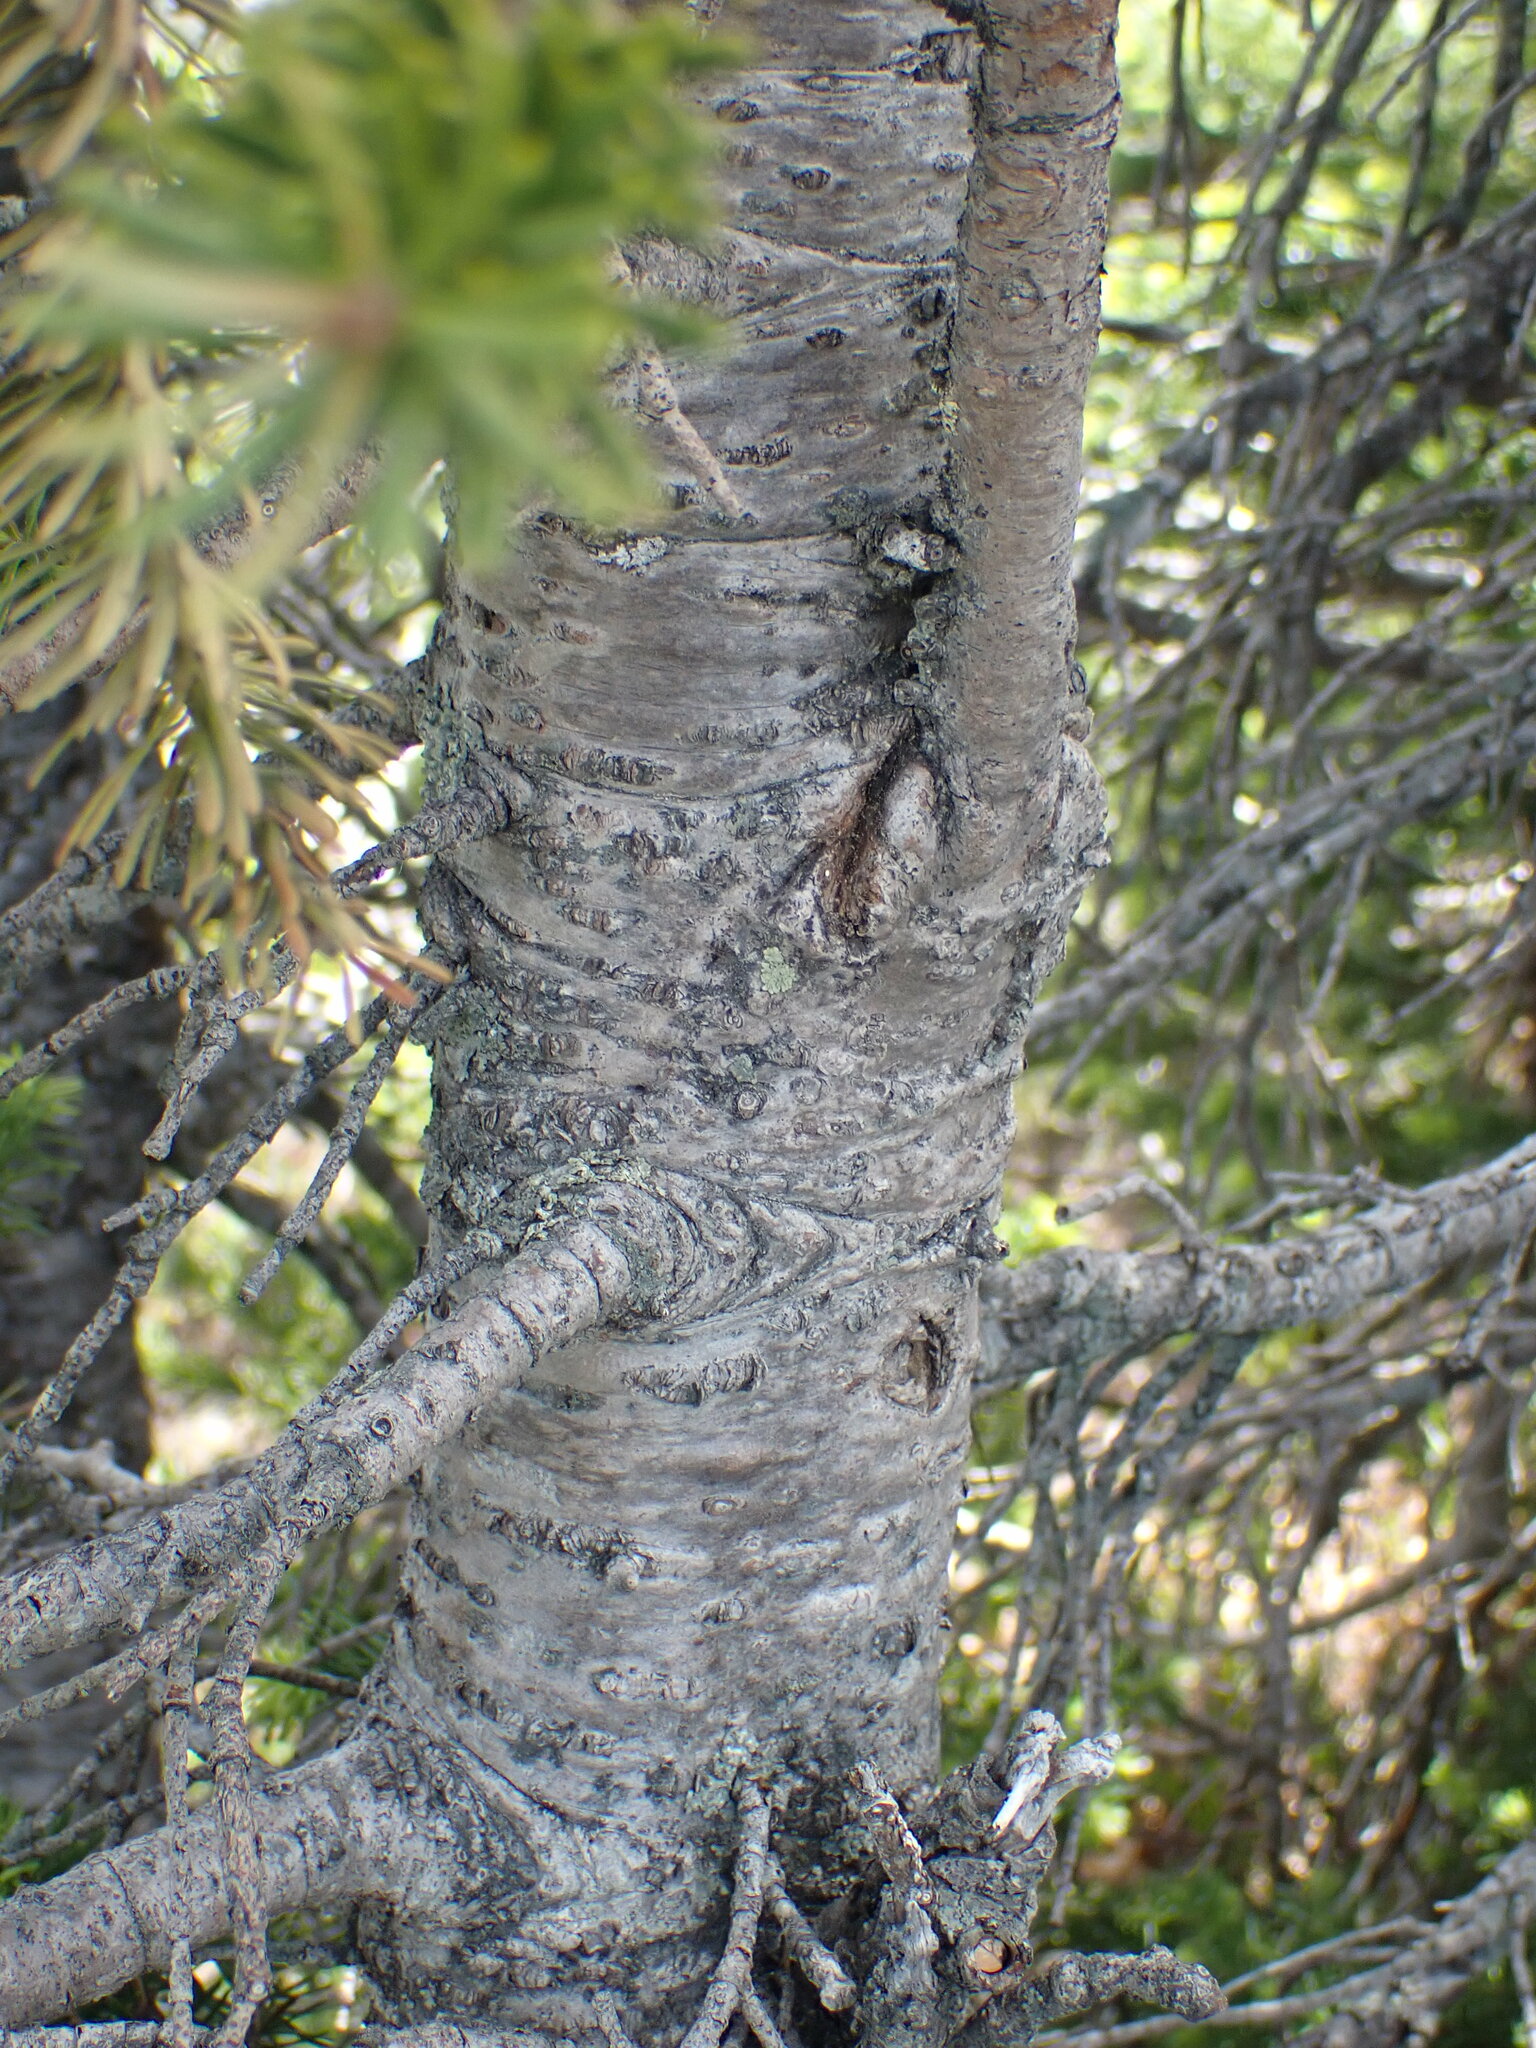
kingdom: Plantae
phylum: Tracheophyta
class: Pinopsida
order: Pinales
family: Pinaceae
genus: Abies
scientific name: Abies lasiocarpa
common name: Subalpine fir
